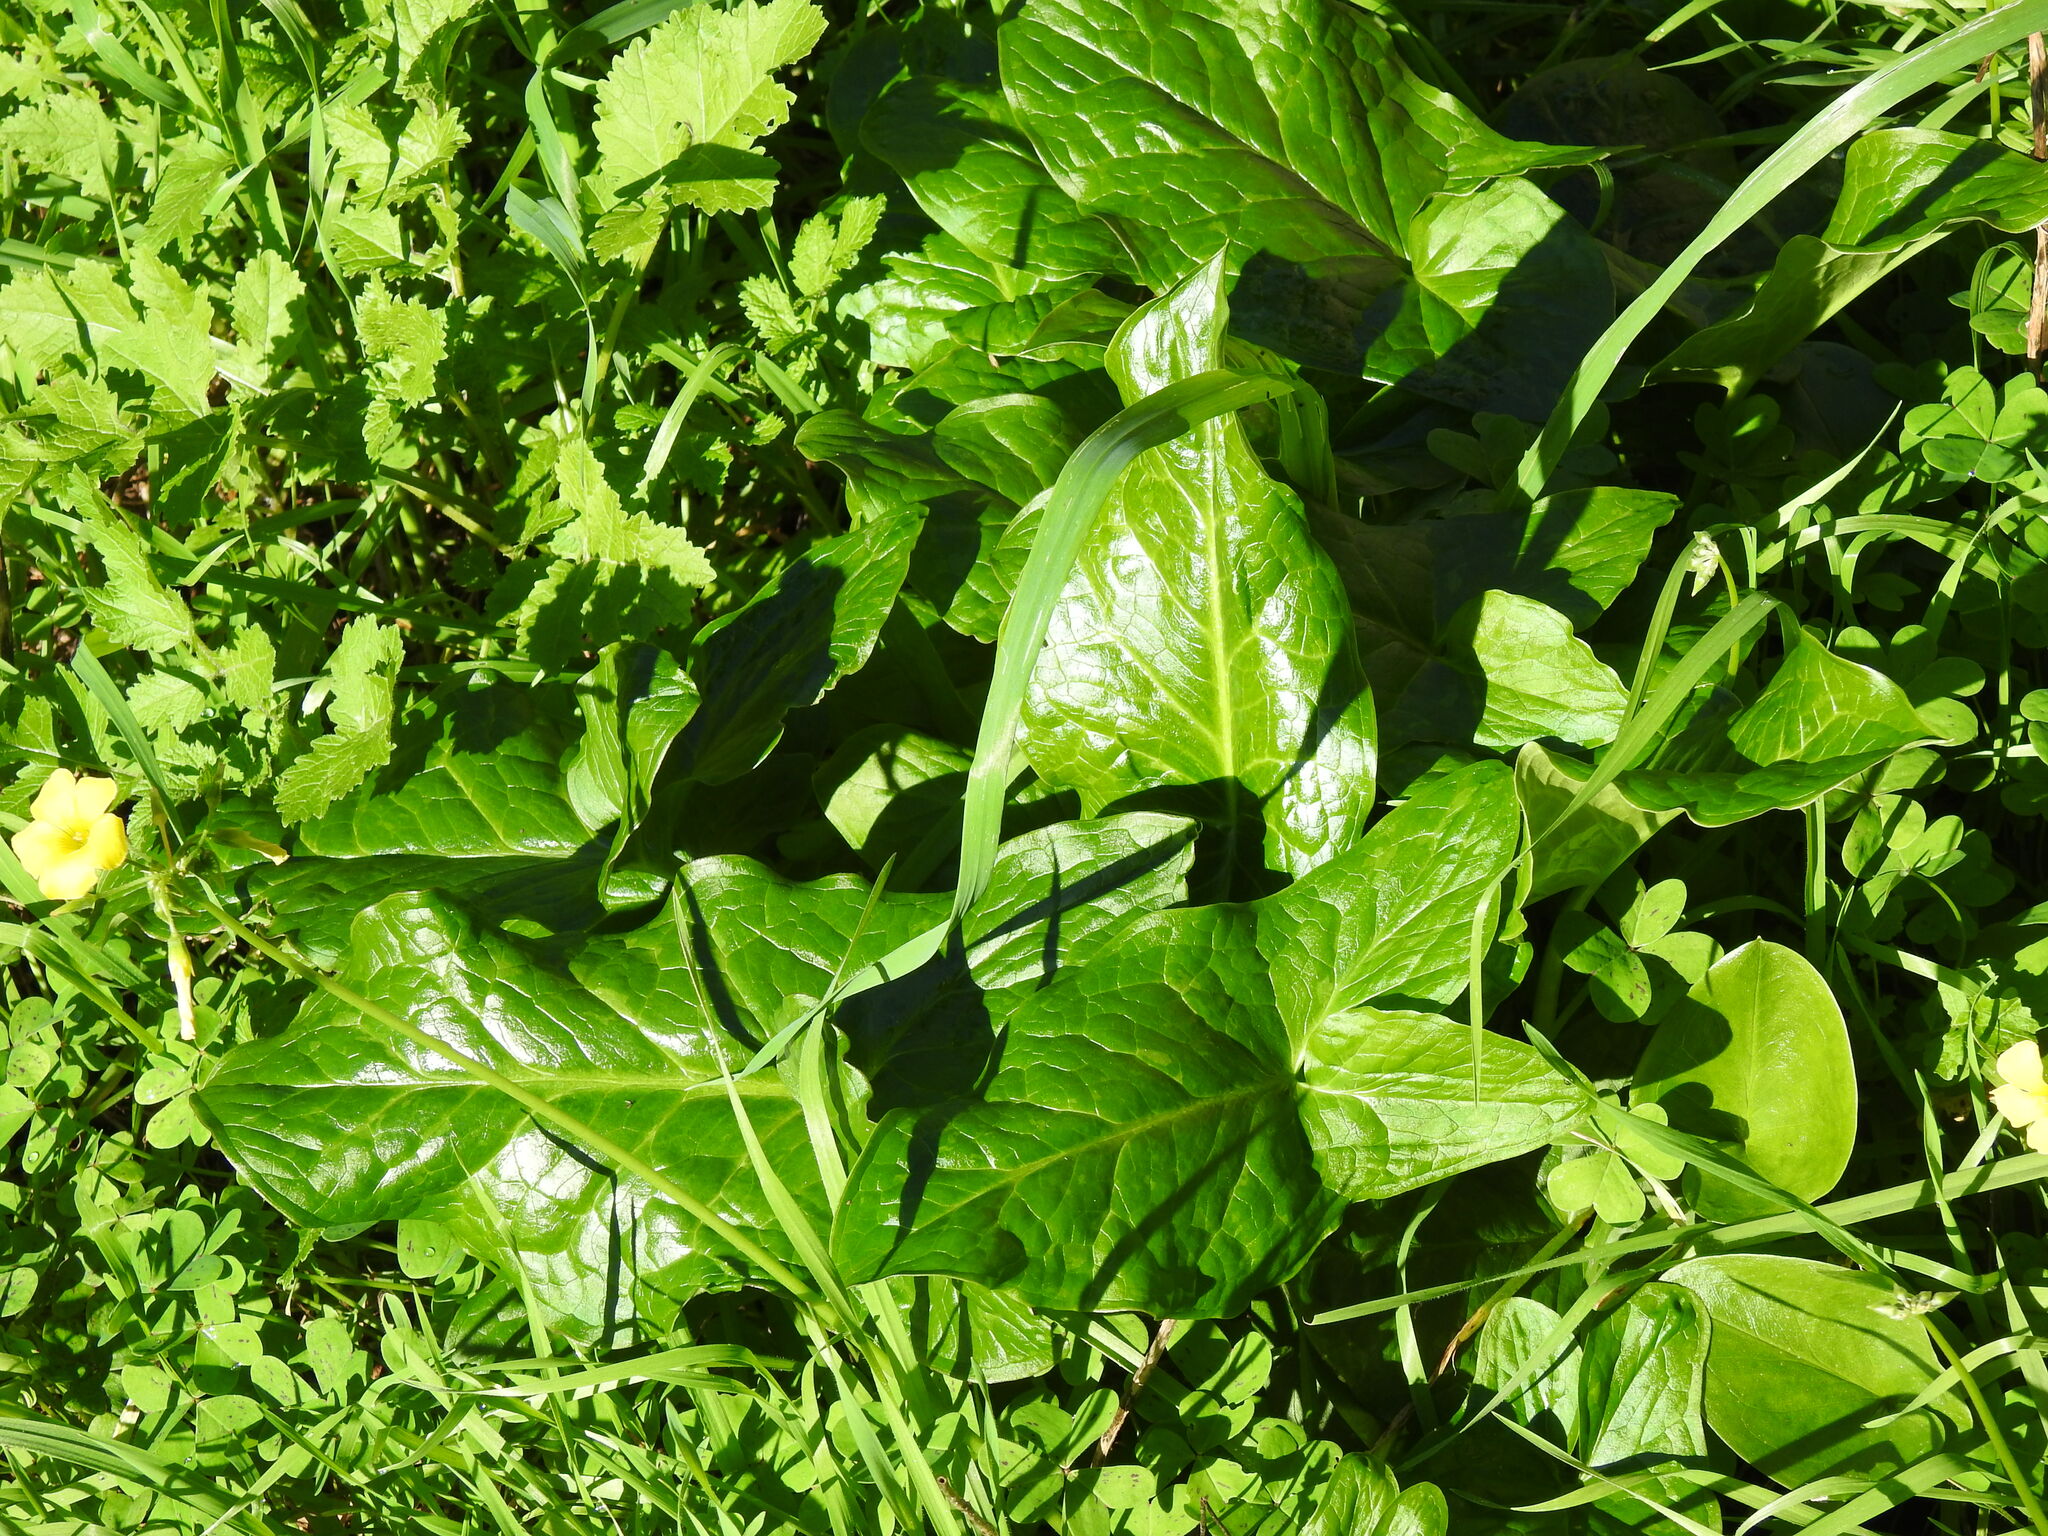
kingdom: Plantae
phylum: Tracheophyta
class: Liliopsida
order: Alismatales
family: Araceae
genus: Arum
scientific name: Arum italicum
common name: Italian lords-and-ladies
